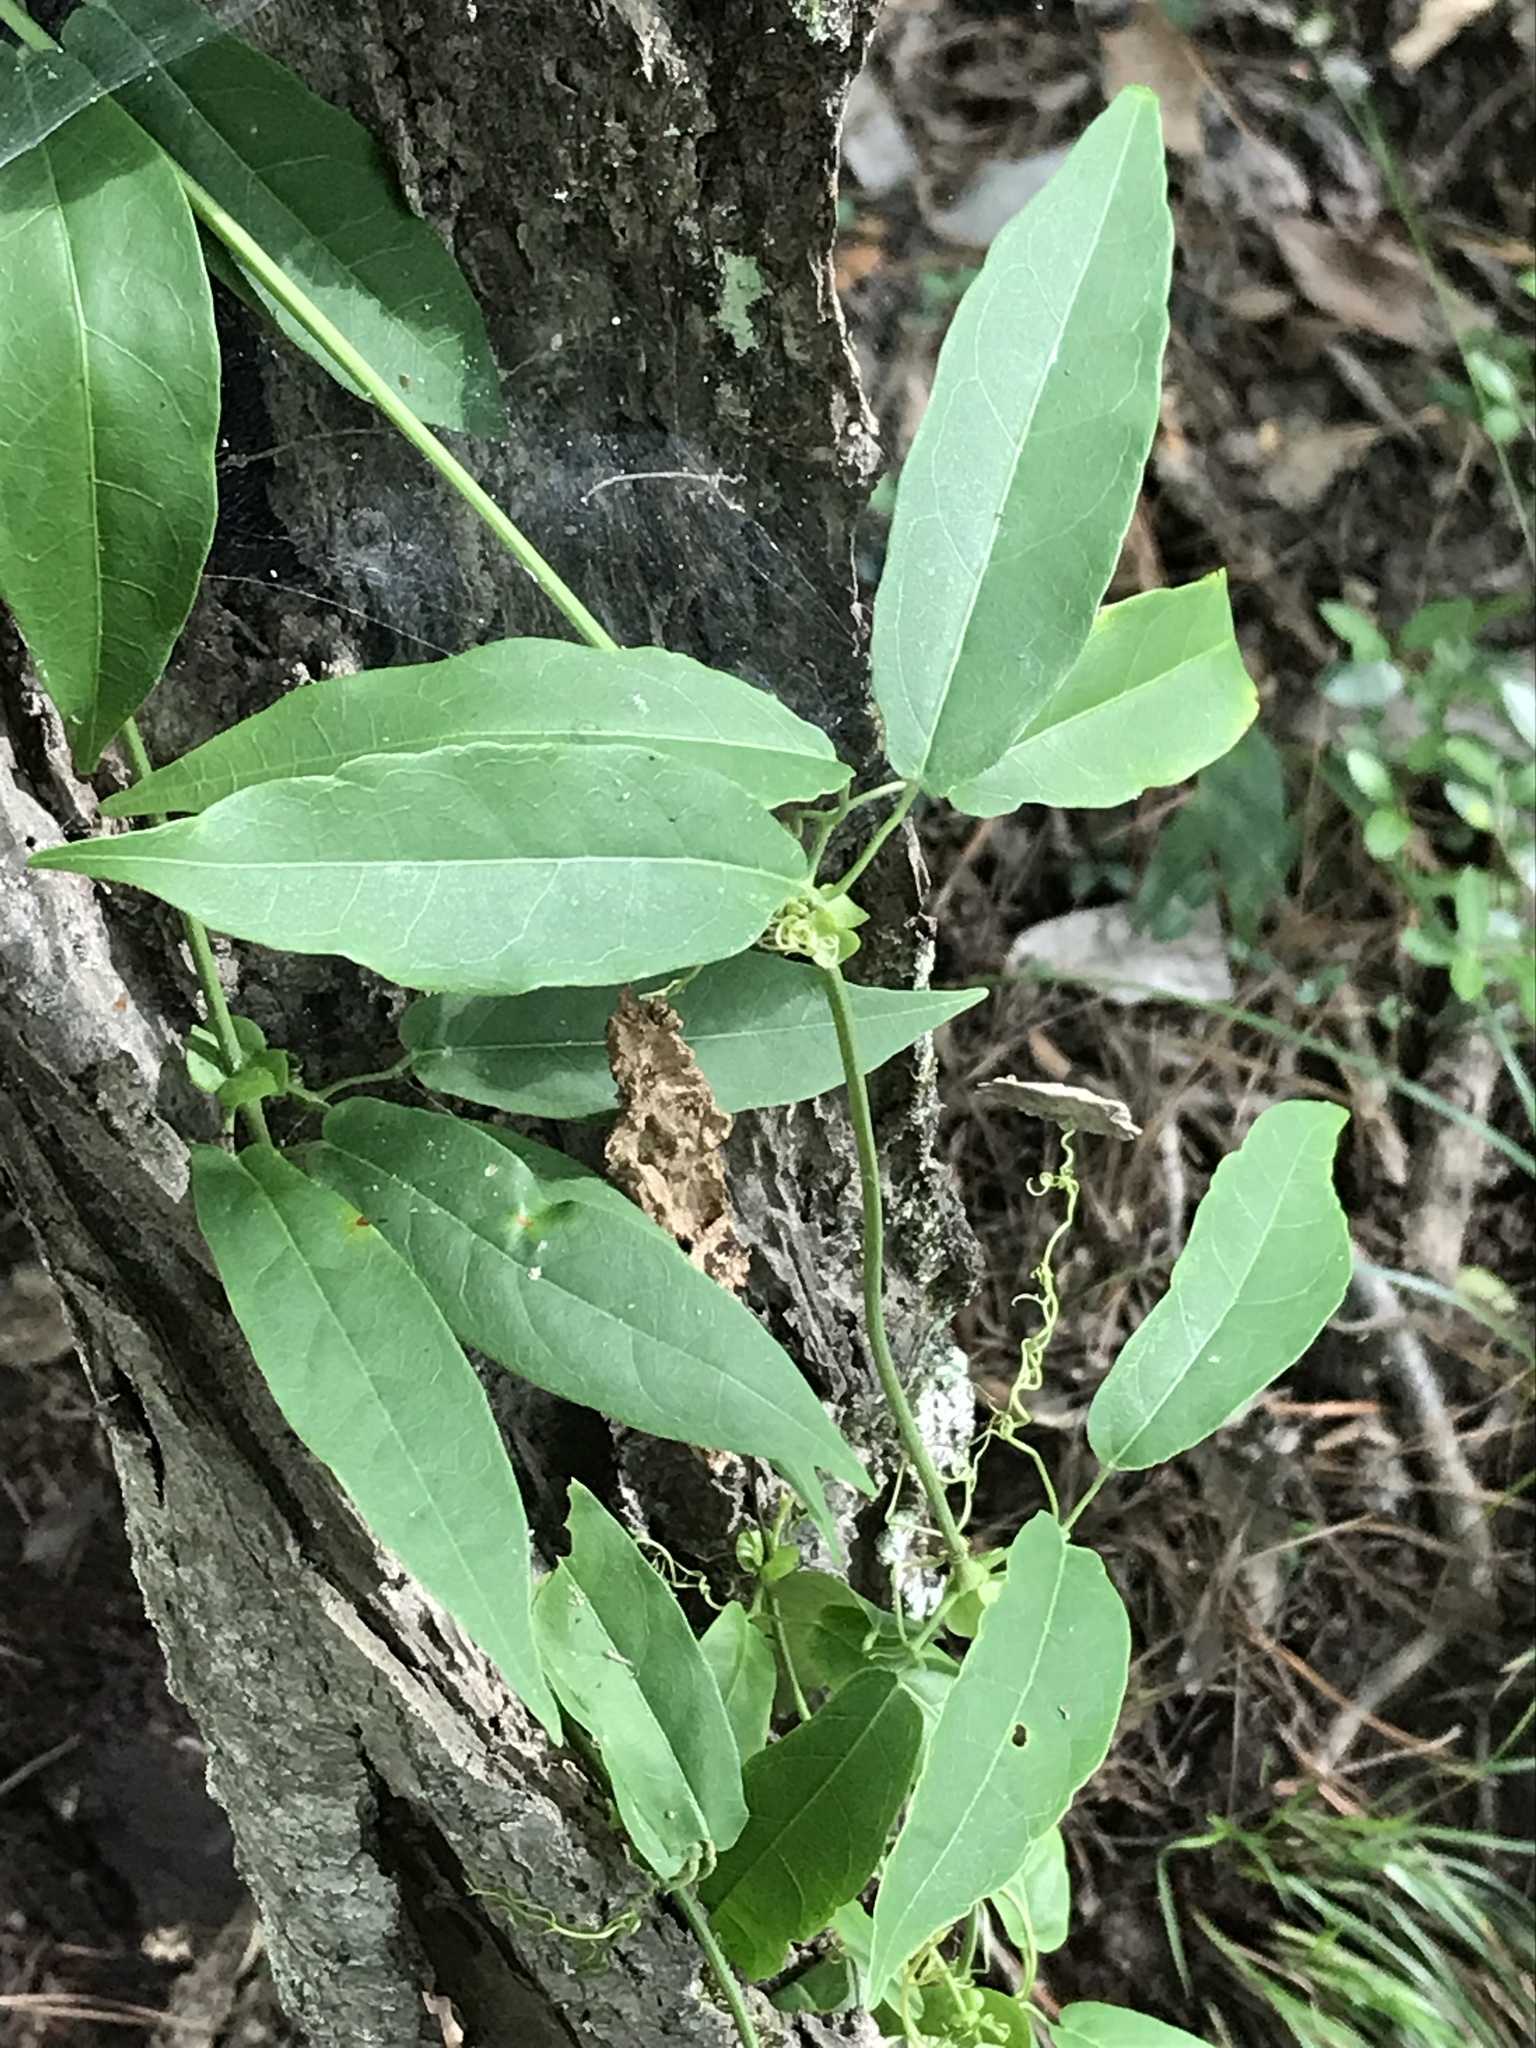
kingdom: Plantae
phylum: Tracheophyta
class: Magnoliopsida
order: Lamiales
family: Bignoniaceae
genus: Bignonia
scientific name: Bignonia capreolata
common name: Crossvine
